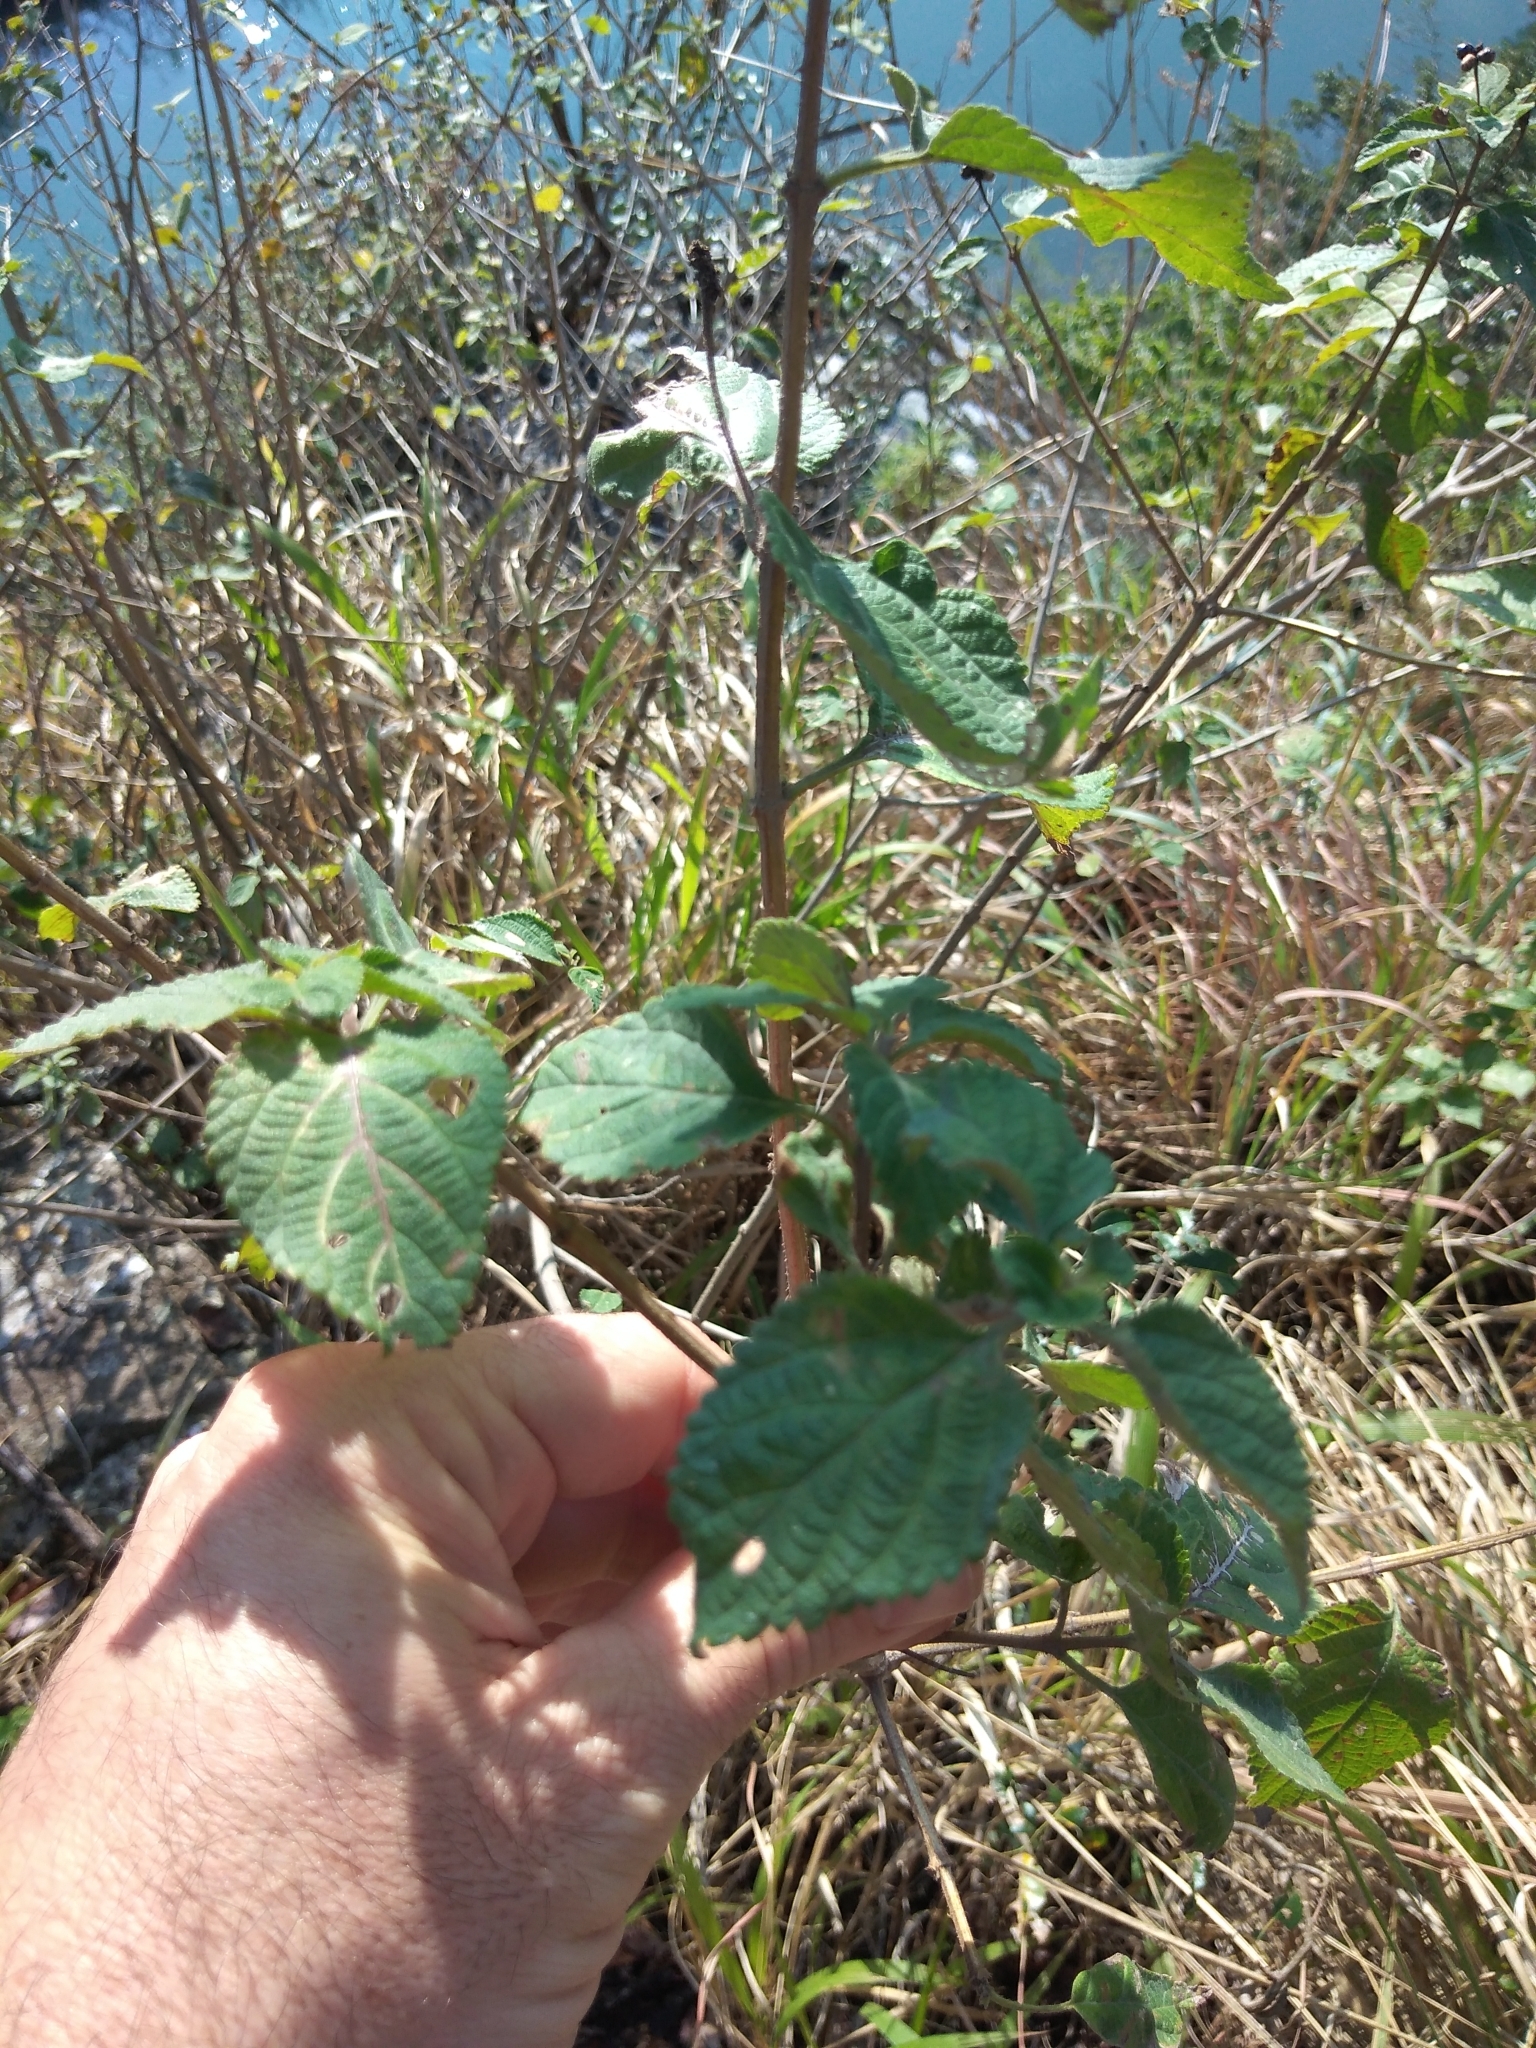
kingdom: Plantae
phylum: Tracheophyta
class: Magnoliopsida
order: Lamiales
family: Verbenaceae
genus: Lantana
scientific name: Lantana camara
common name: Lantana
